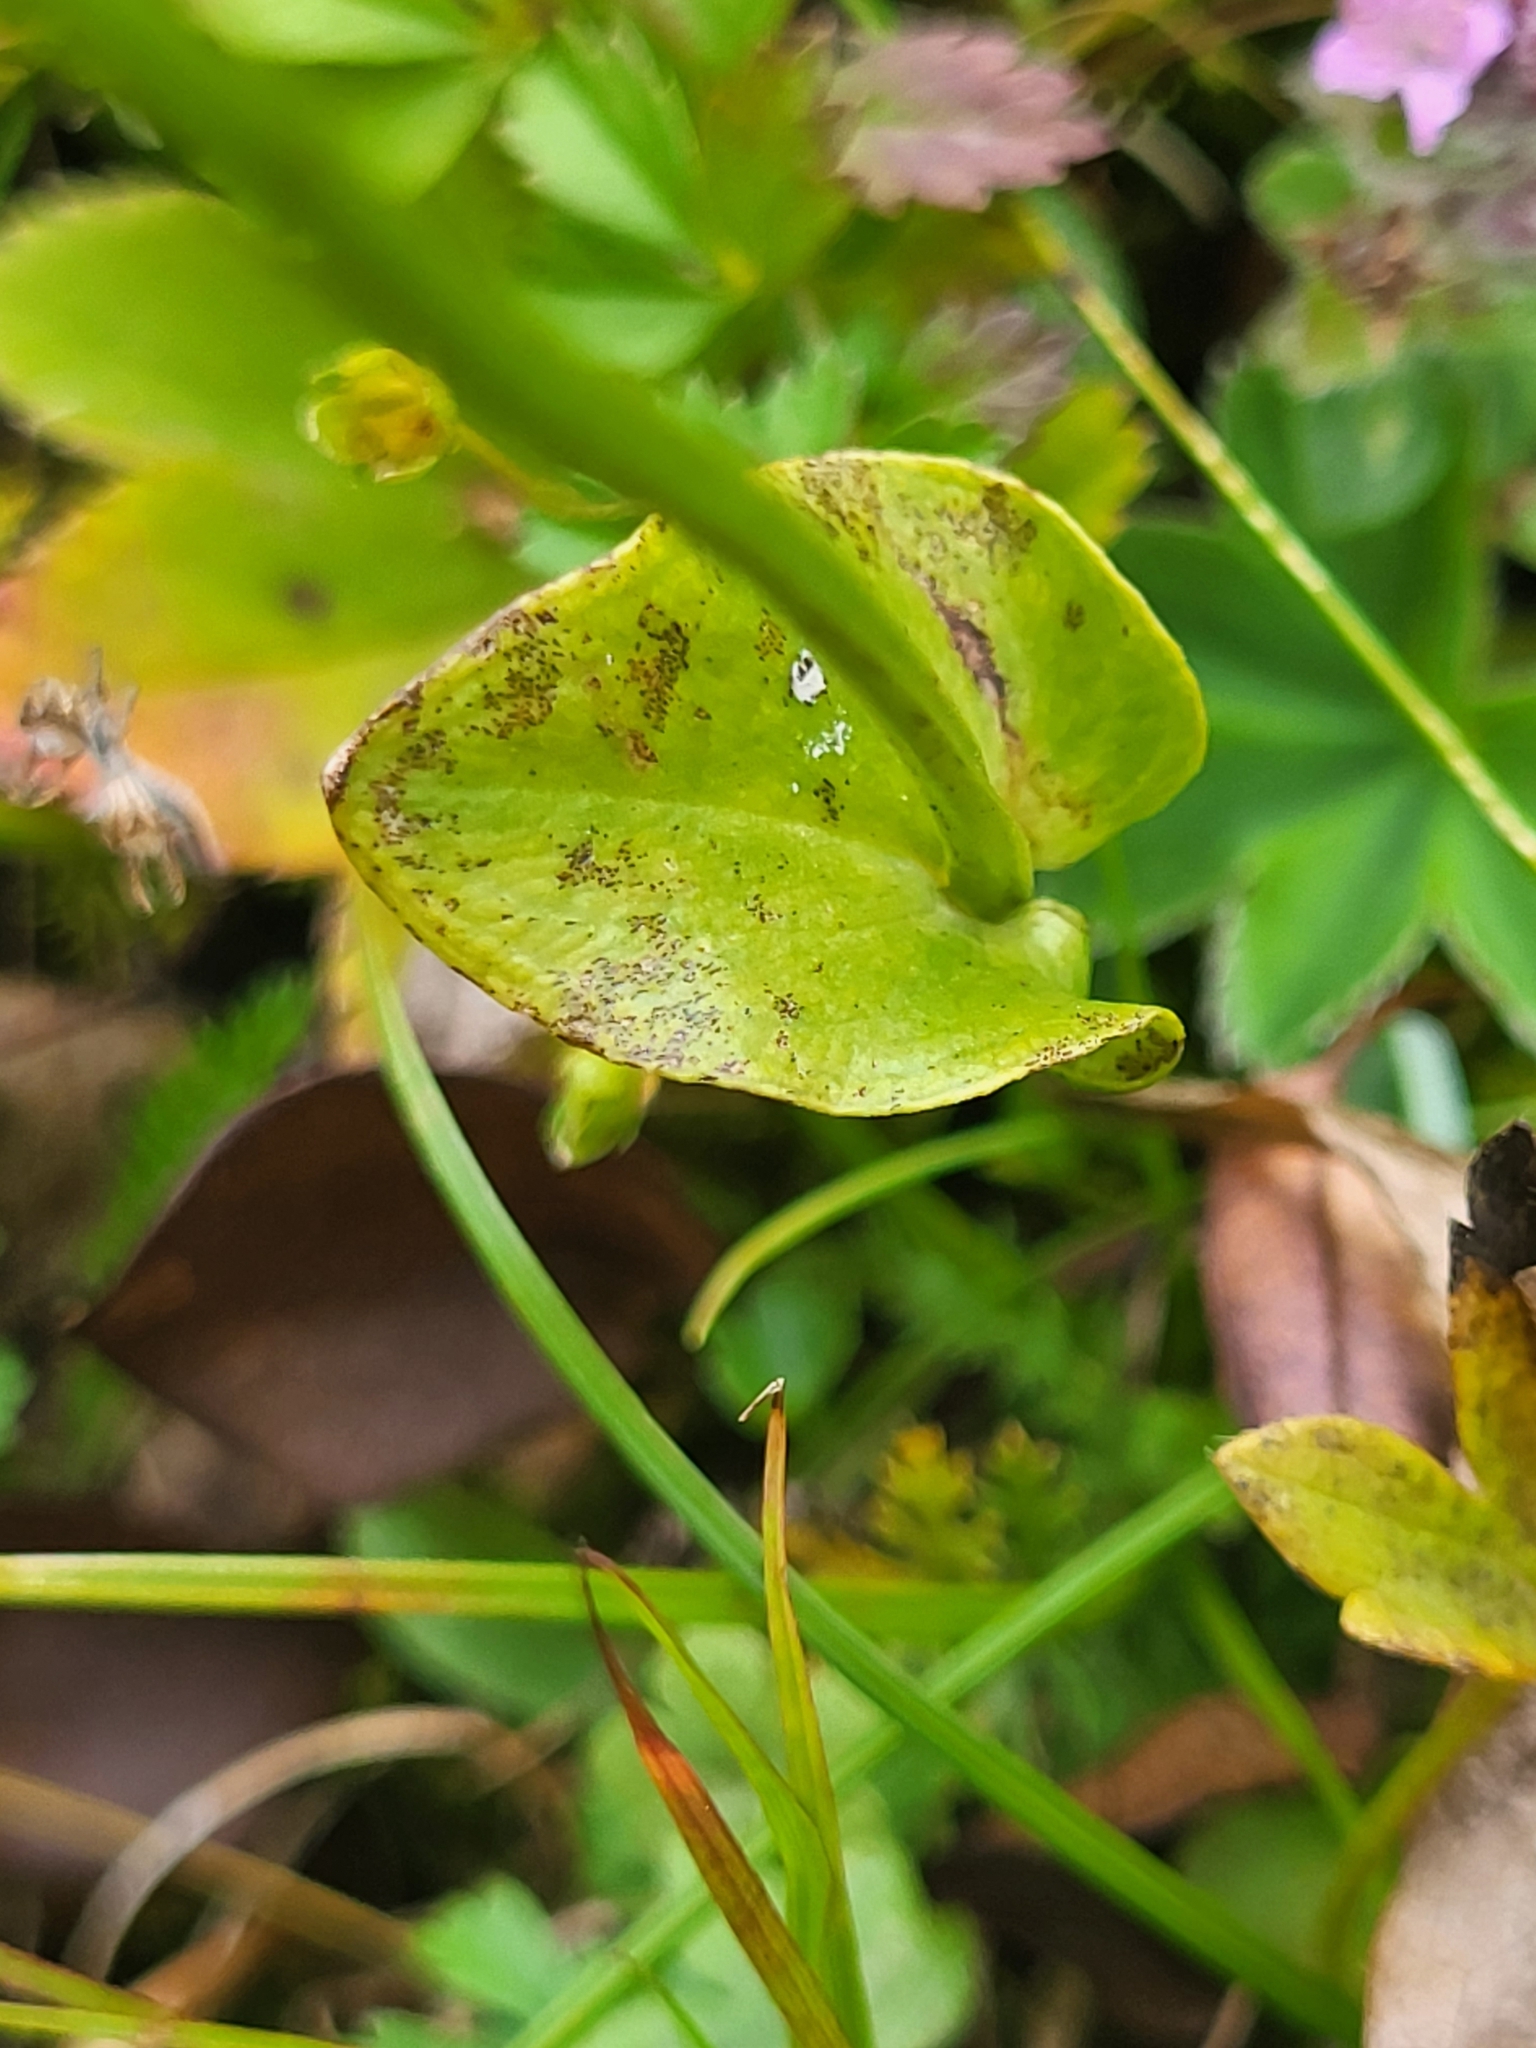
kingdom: Plantae
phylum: Tracheophyta
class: Magnoliopsida
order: Celastrales
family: Parnassiaceae
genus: Parnassia
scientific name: Parnassia palustris
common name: Grass-of-parnassus
